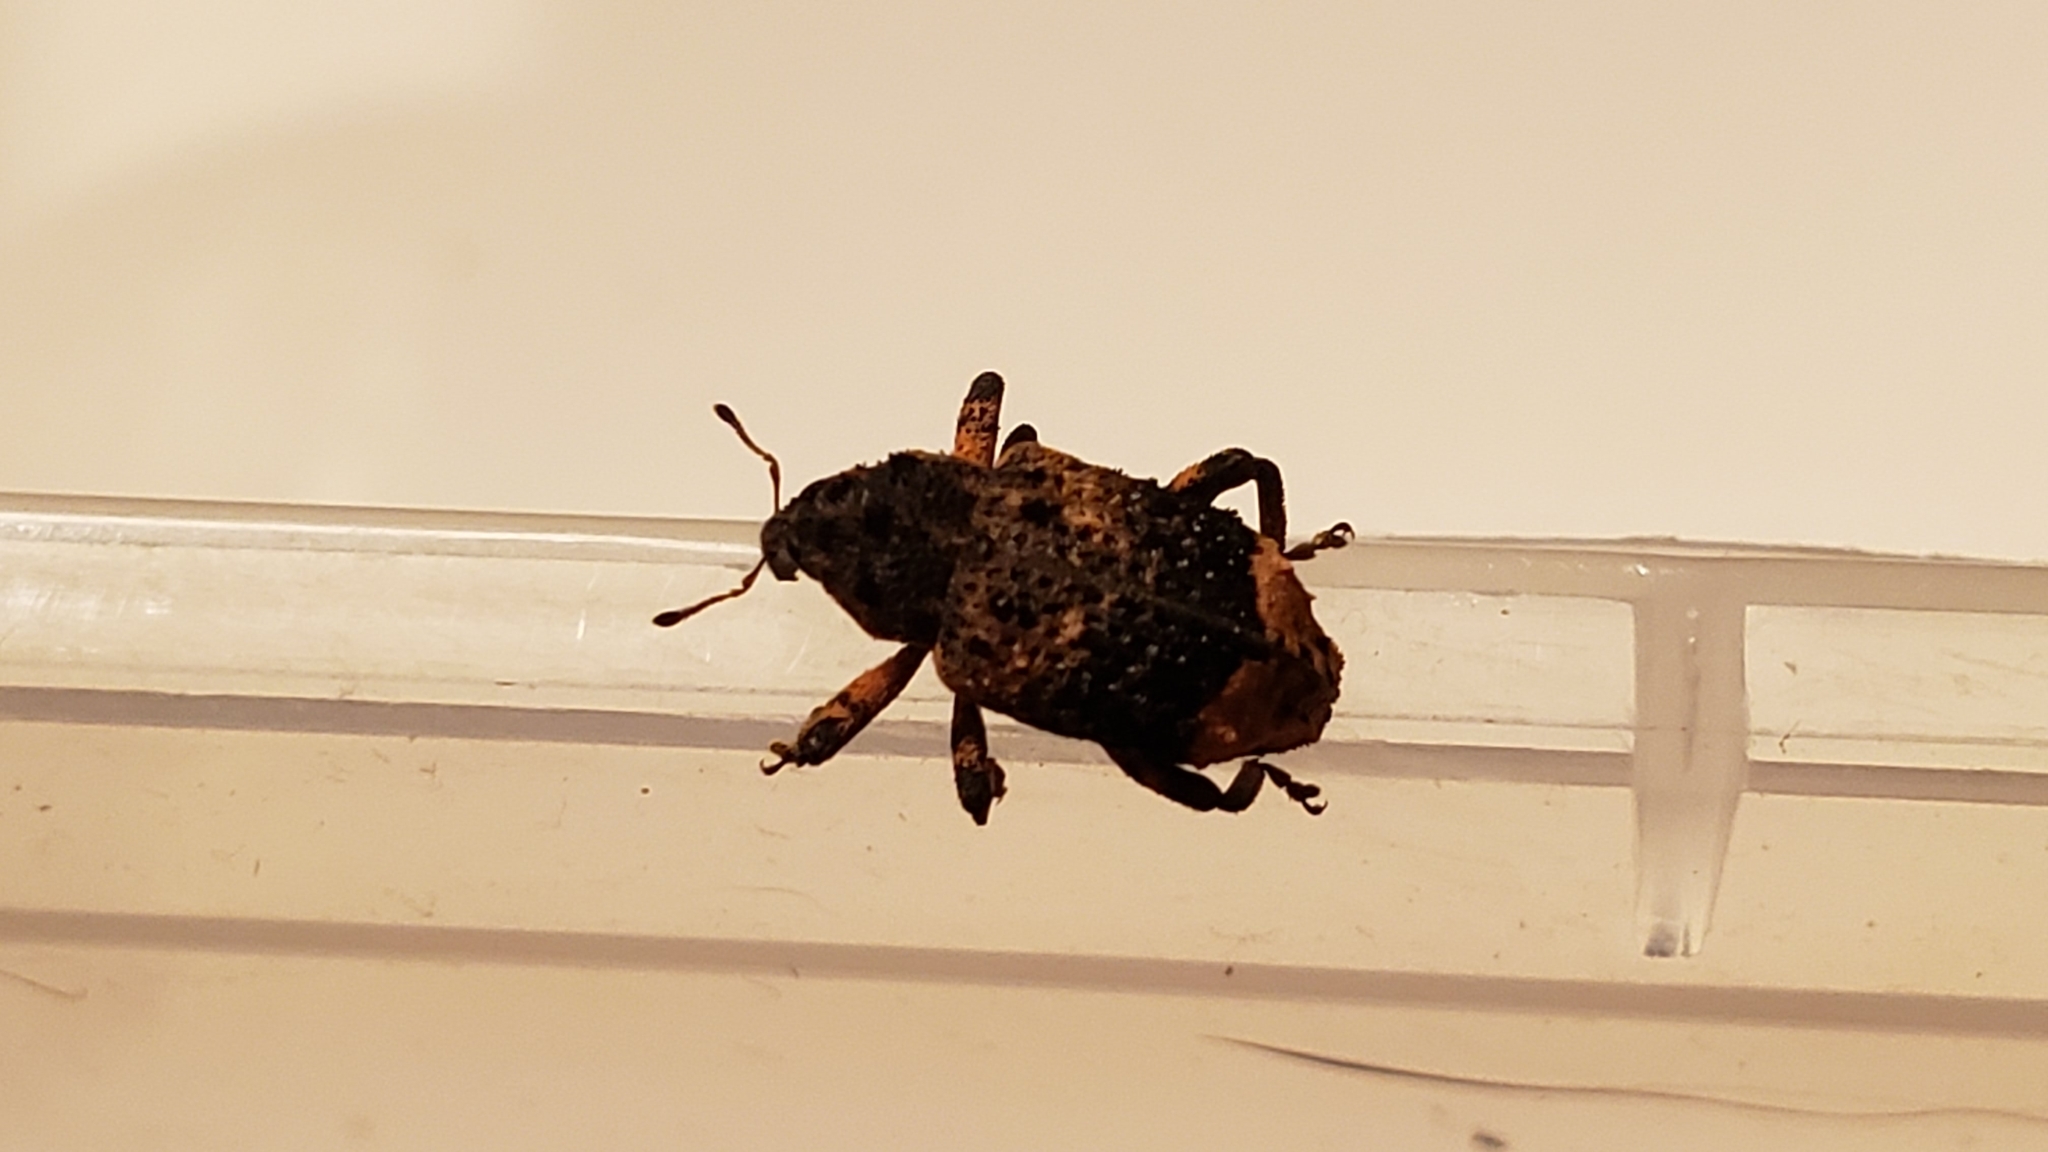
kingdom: Animalia
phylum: Arthropoda
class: Insecta
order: Coleoptera
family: Curculionidae
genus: Cryptorhynchus
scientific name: Cryptorhynchus lapathi
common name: Weevil
